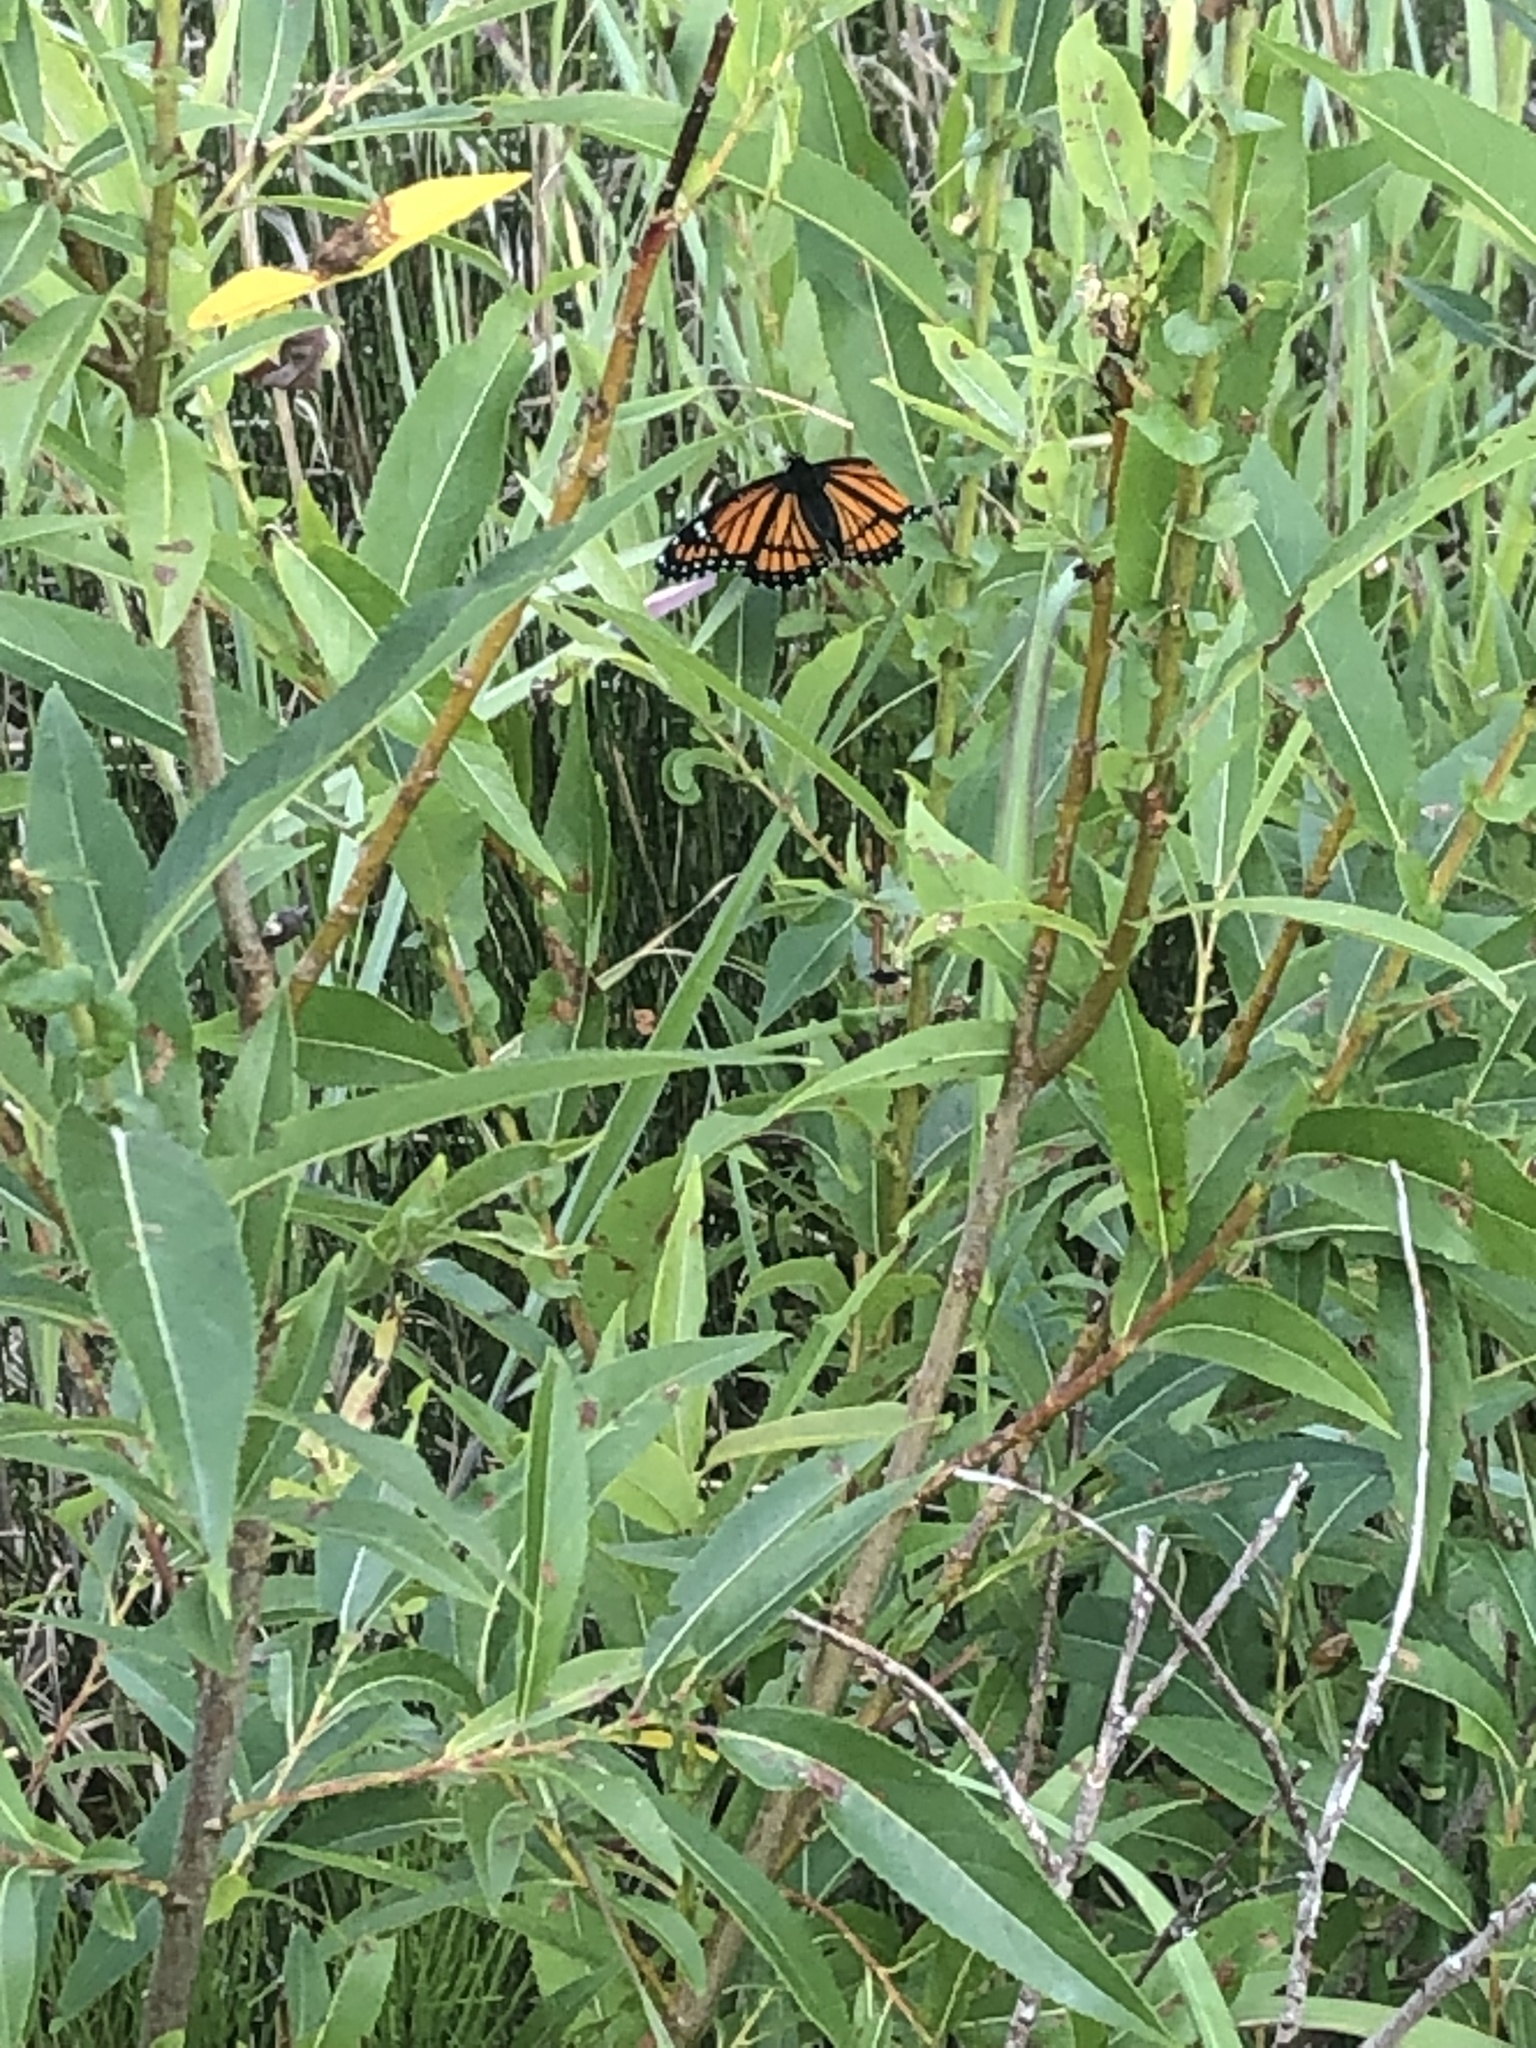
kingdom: Animalia
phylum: Arthropoda
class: Insecta
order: Lepidoptera
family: Nymphalidae
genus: Limenitis
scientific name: Limenitis archippus
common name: Viceroy
